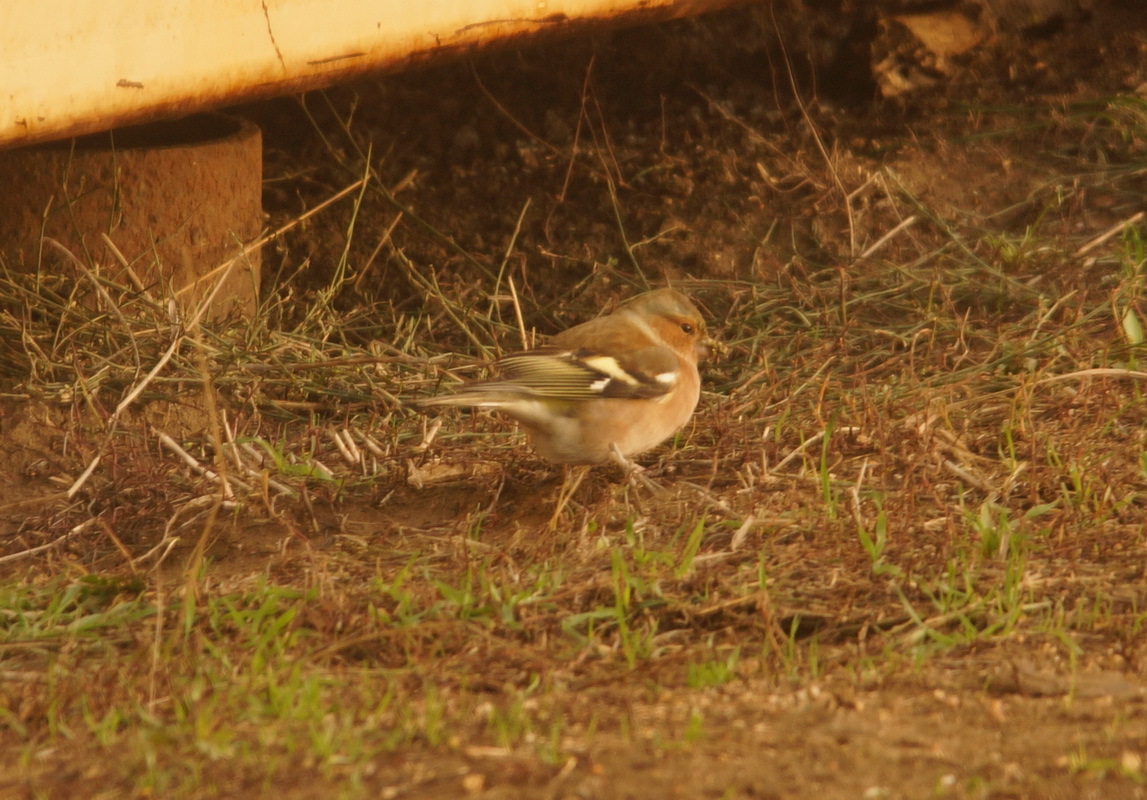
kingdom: Animalia
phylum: Chordata
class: Aves
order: Passeriformes
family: Fringillidae
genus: Fringilla
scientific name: Fringilla coelebs
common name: Common chaffinch
